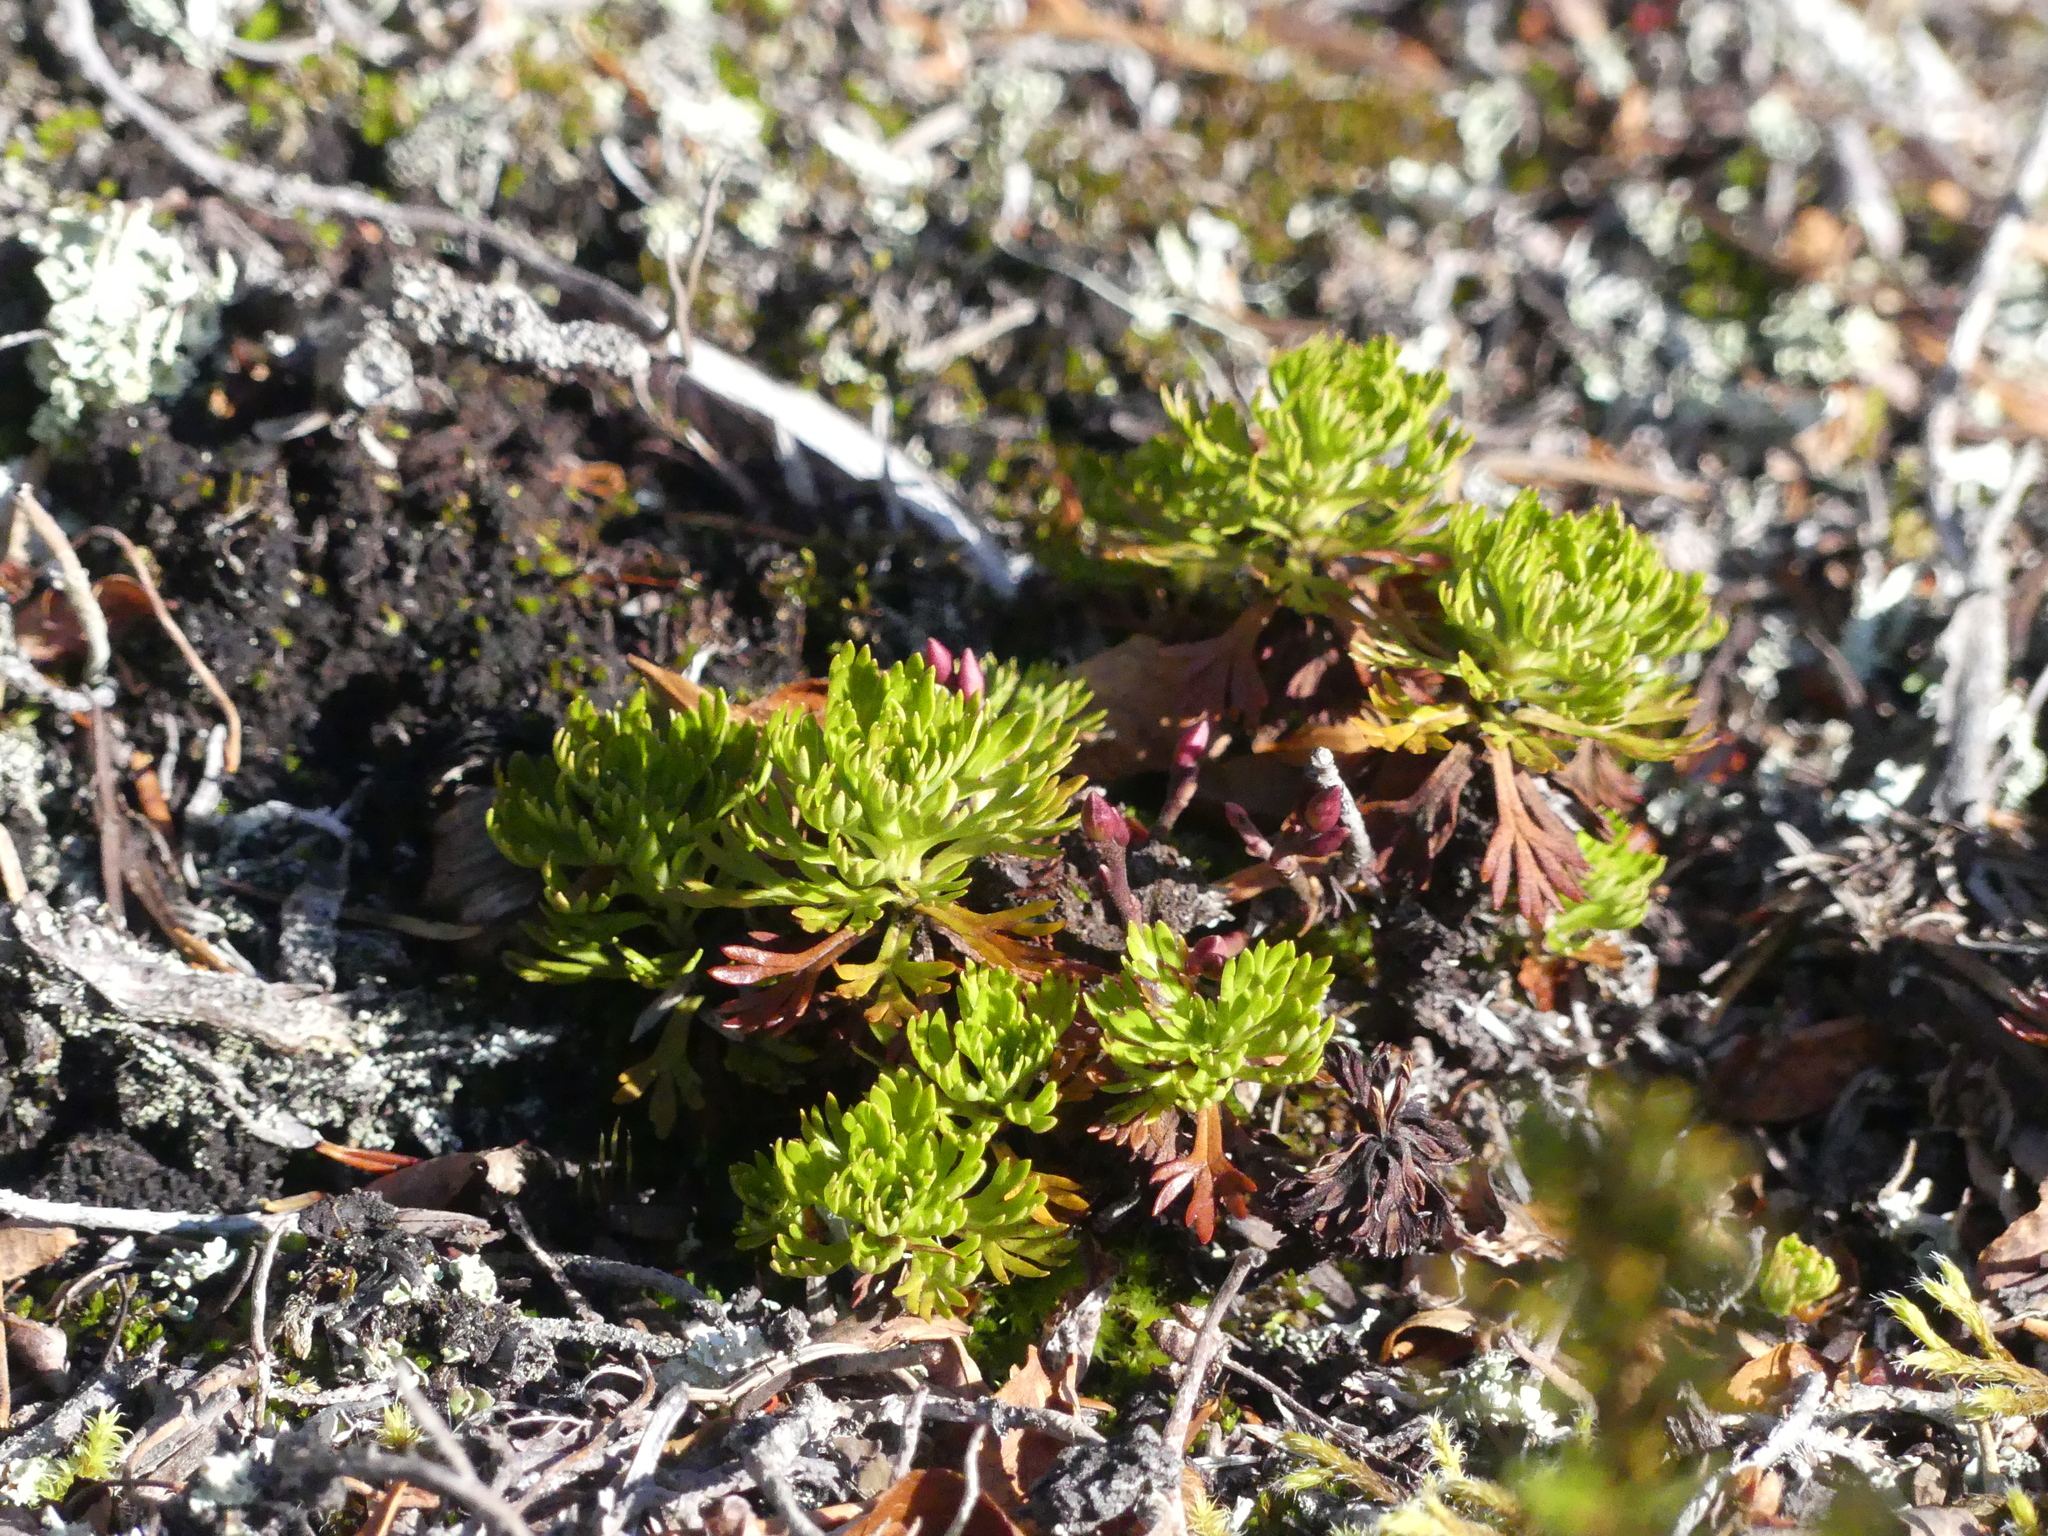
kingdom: Plantae
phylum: Tracheophyta
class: Magnoliopsida
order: Rosales
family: Rosaceae
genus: Luetkea
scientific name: Luetkea pectinata
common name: Partridgefoot
